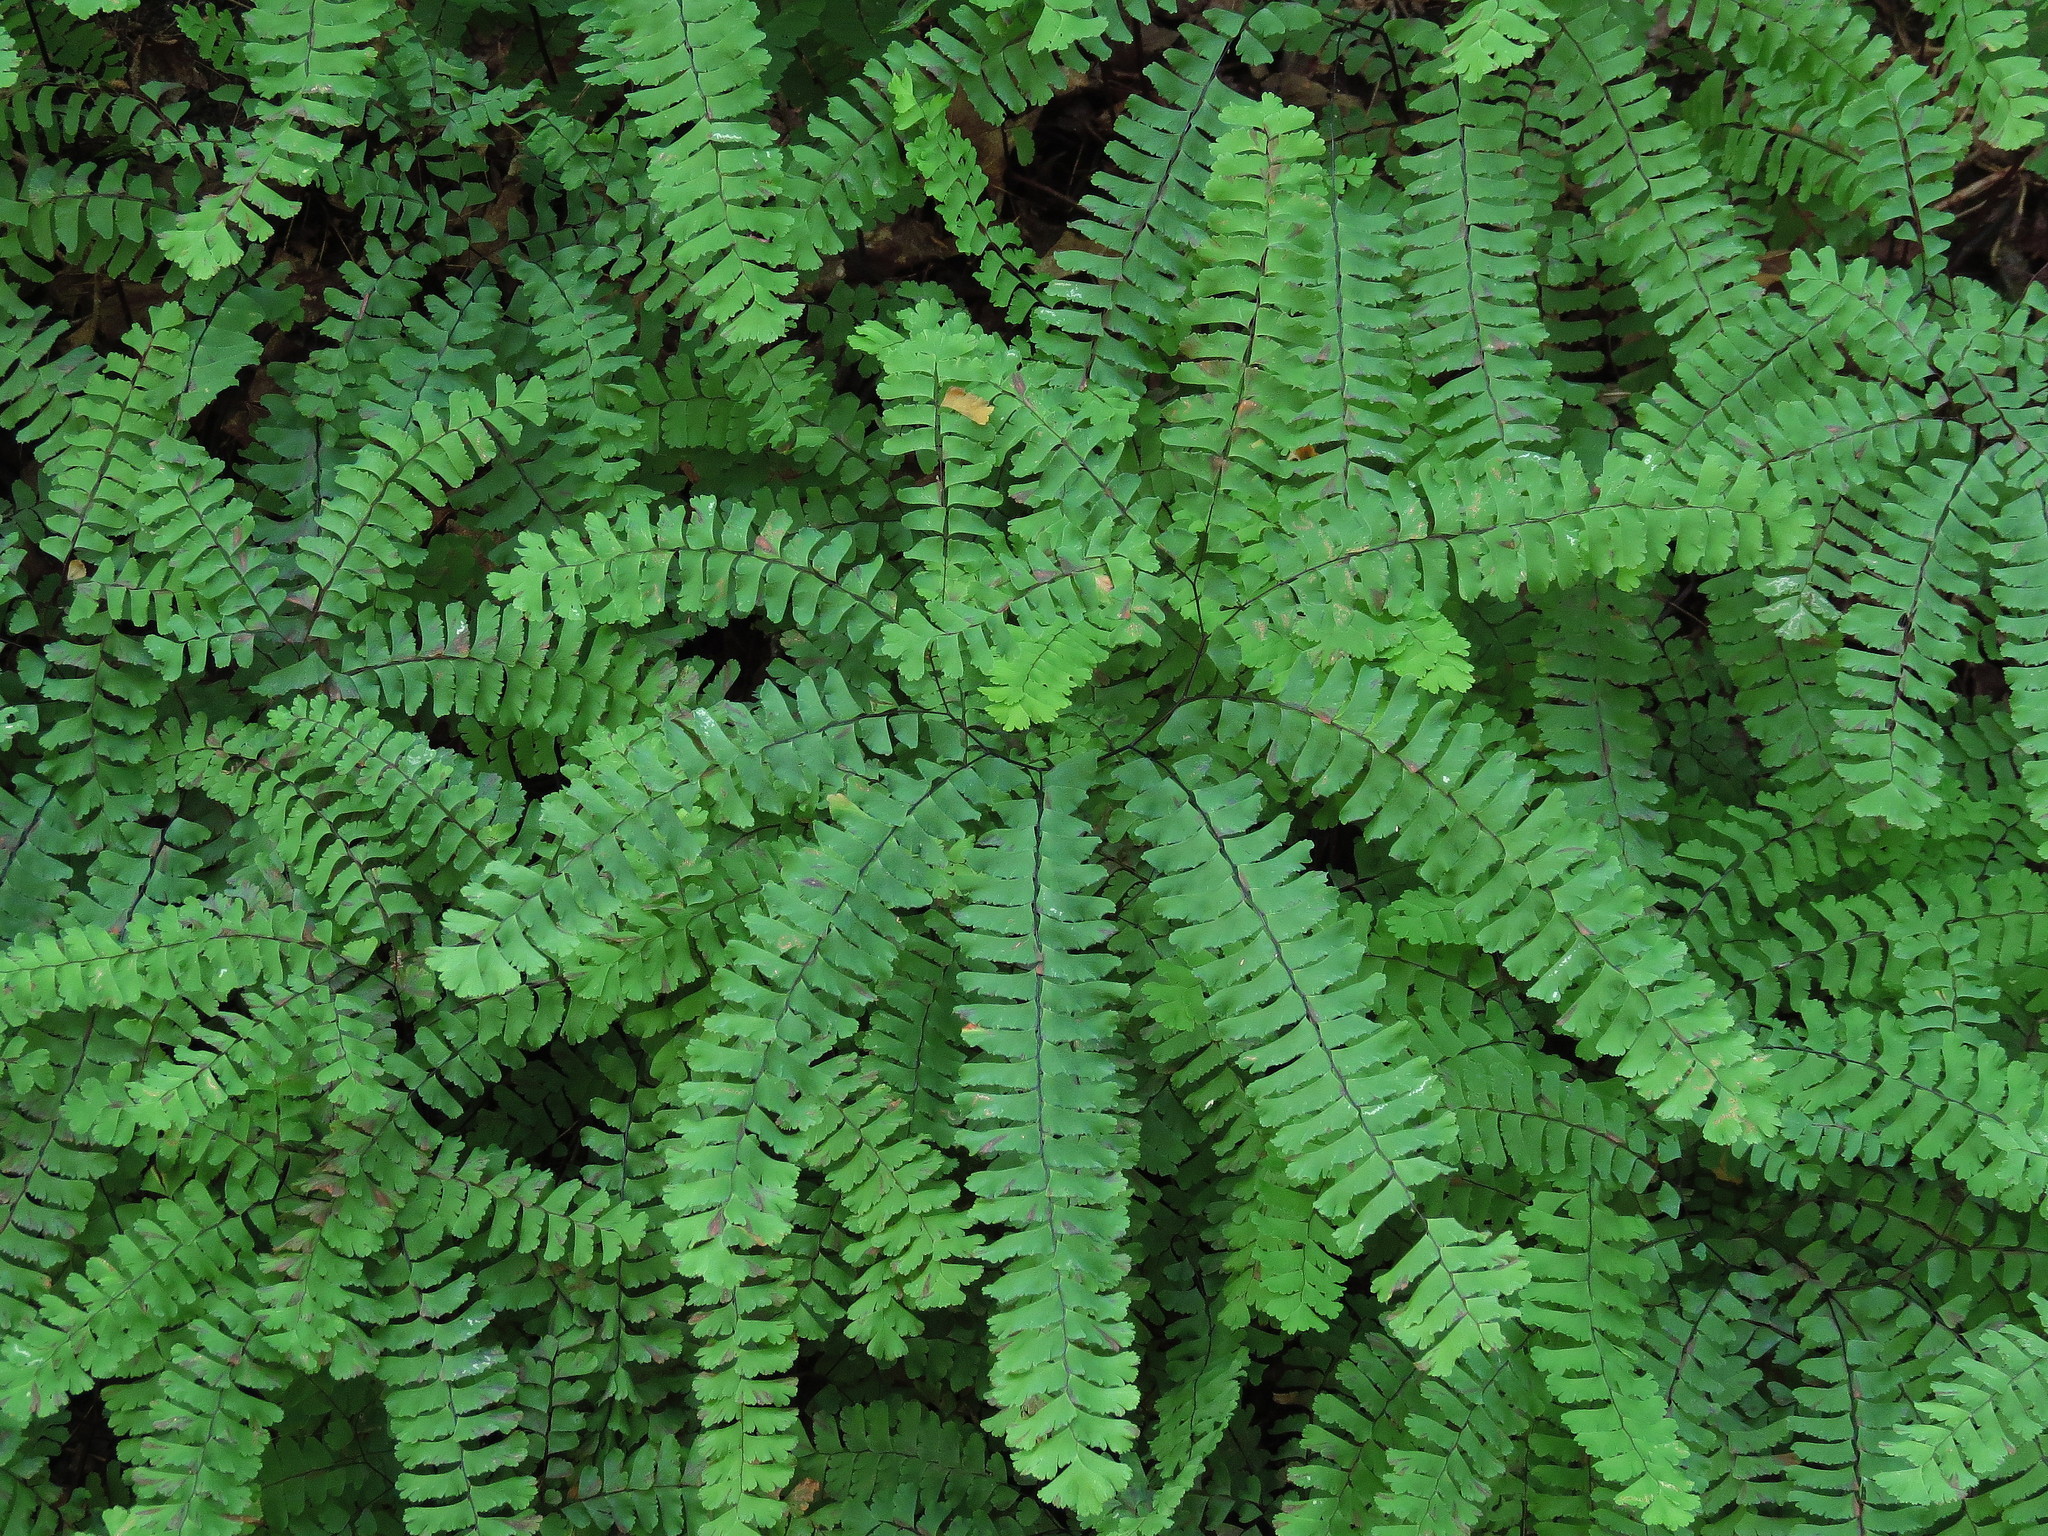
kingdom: Plantae
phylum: Tracheophyta
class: Polypodiopsida
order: Polypodiales
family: Pteridaceae
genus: Adiantum
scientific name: Adiantum pedatum
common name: Five-finger fern
